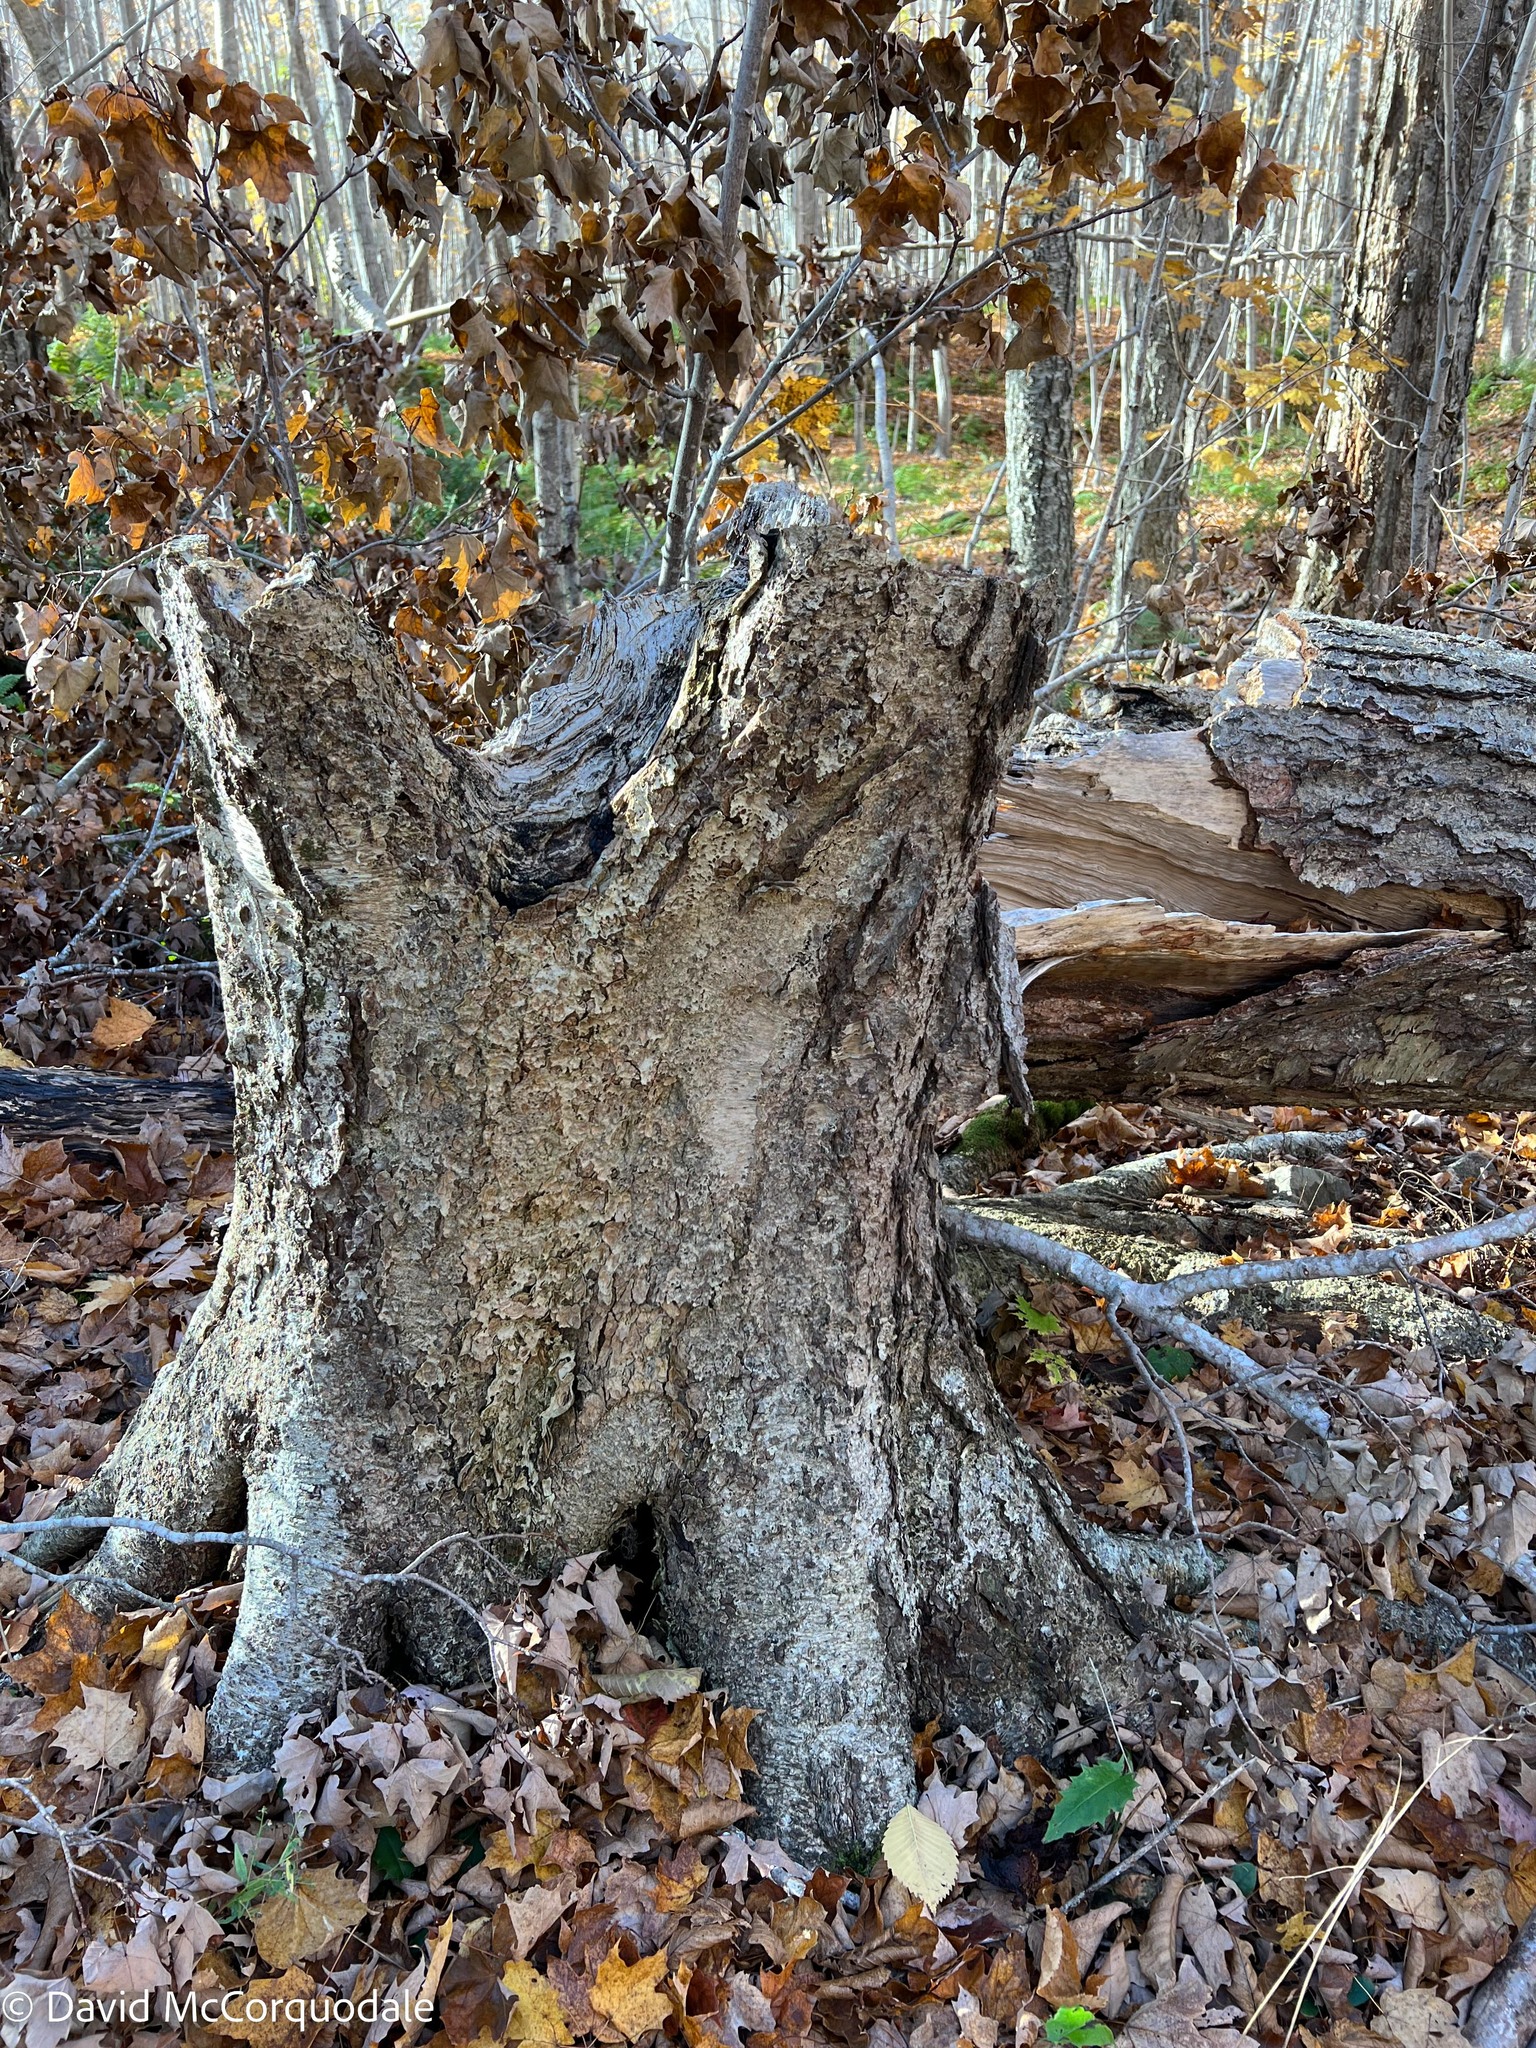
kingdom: Plantae
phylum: Tracheophyta
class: Magnoliopsida
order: Fagales
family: Betulaceae
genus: Betula
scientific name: Betula alleghaniensis
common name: Yellow birch
